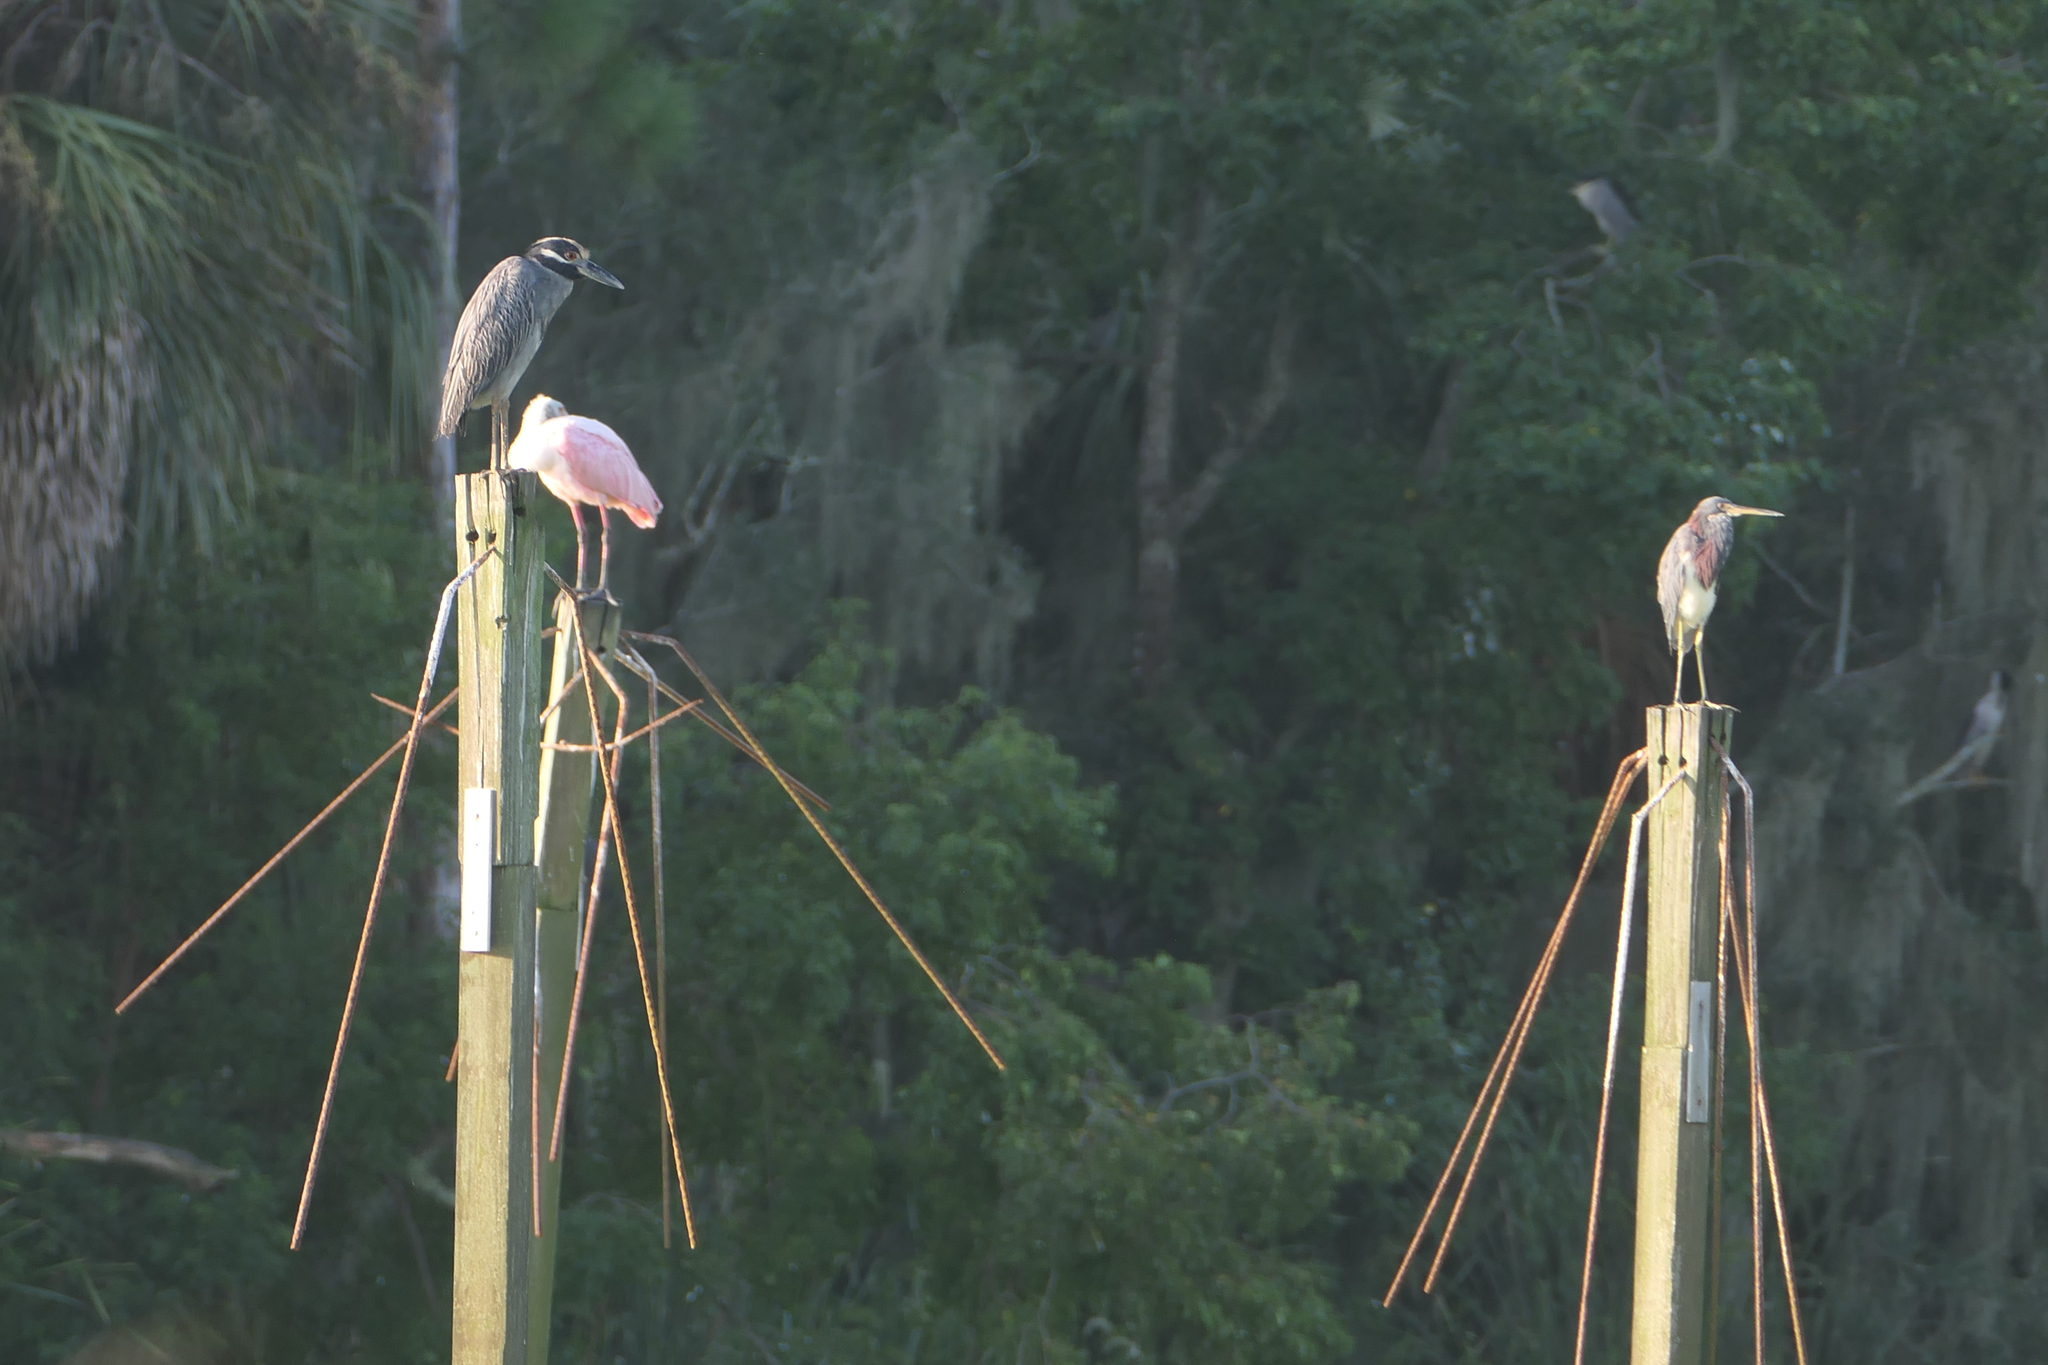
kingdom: Animalia
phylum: Chordata
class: Aves
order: Pelecaniformes
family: Ardeidae
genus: Nyctanassa
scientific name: Nyctanassa violacea
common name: Yellow-crowned night heron
